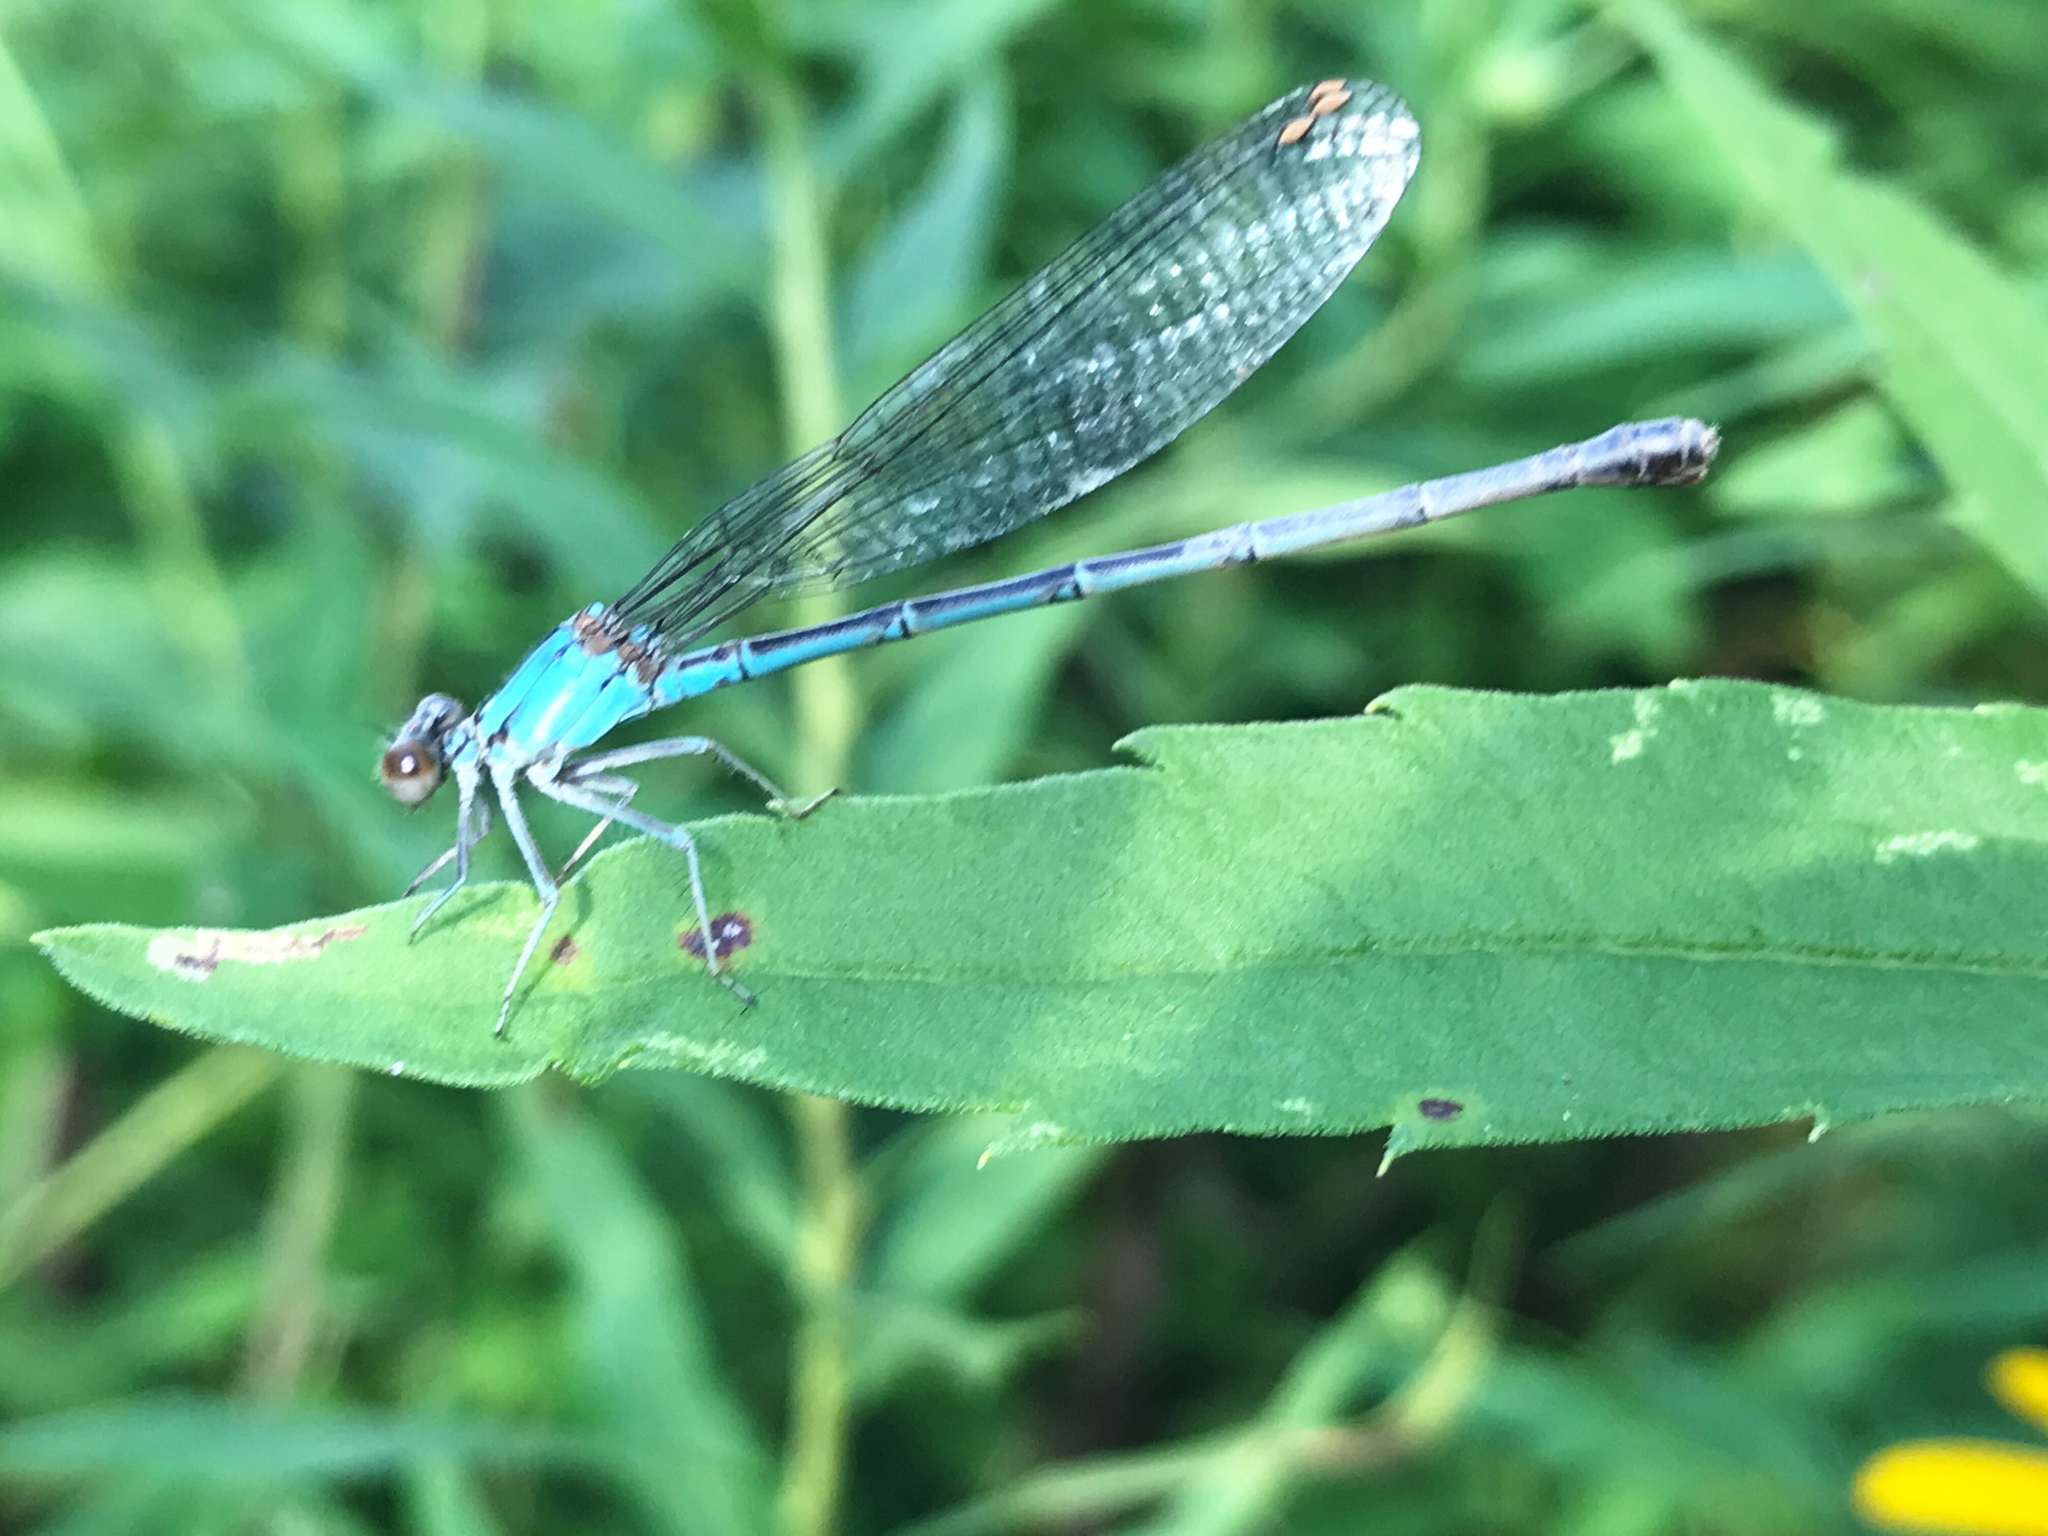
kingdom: Animalia
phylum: Arthropoda
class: Insecta
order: Odonata
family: Coenagrionidae
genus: Argia
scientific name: Argia apicalis
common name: Blue-fronted dancer
